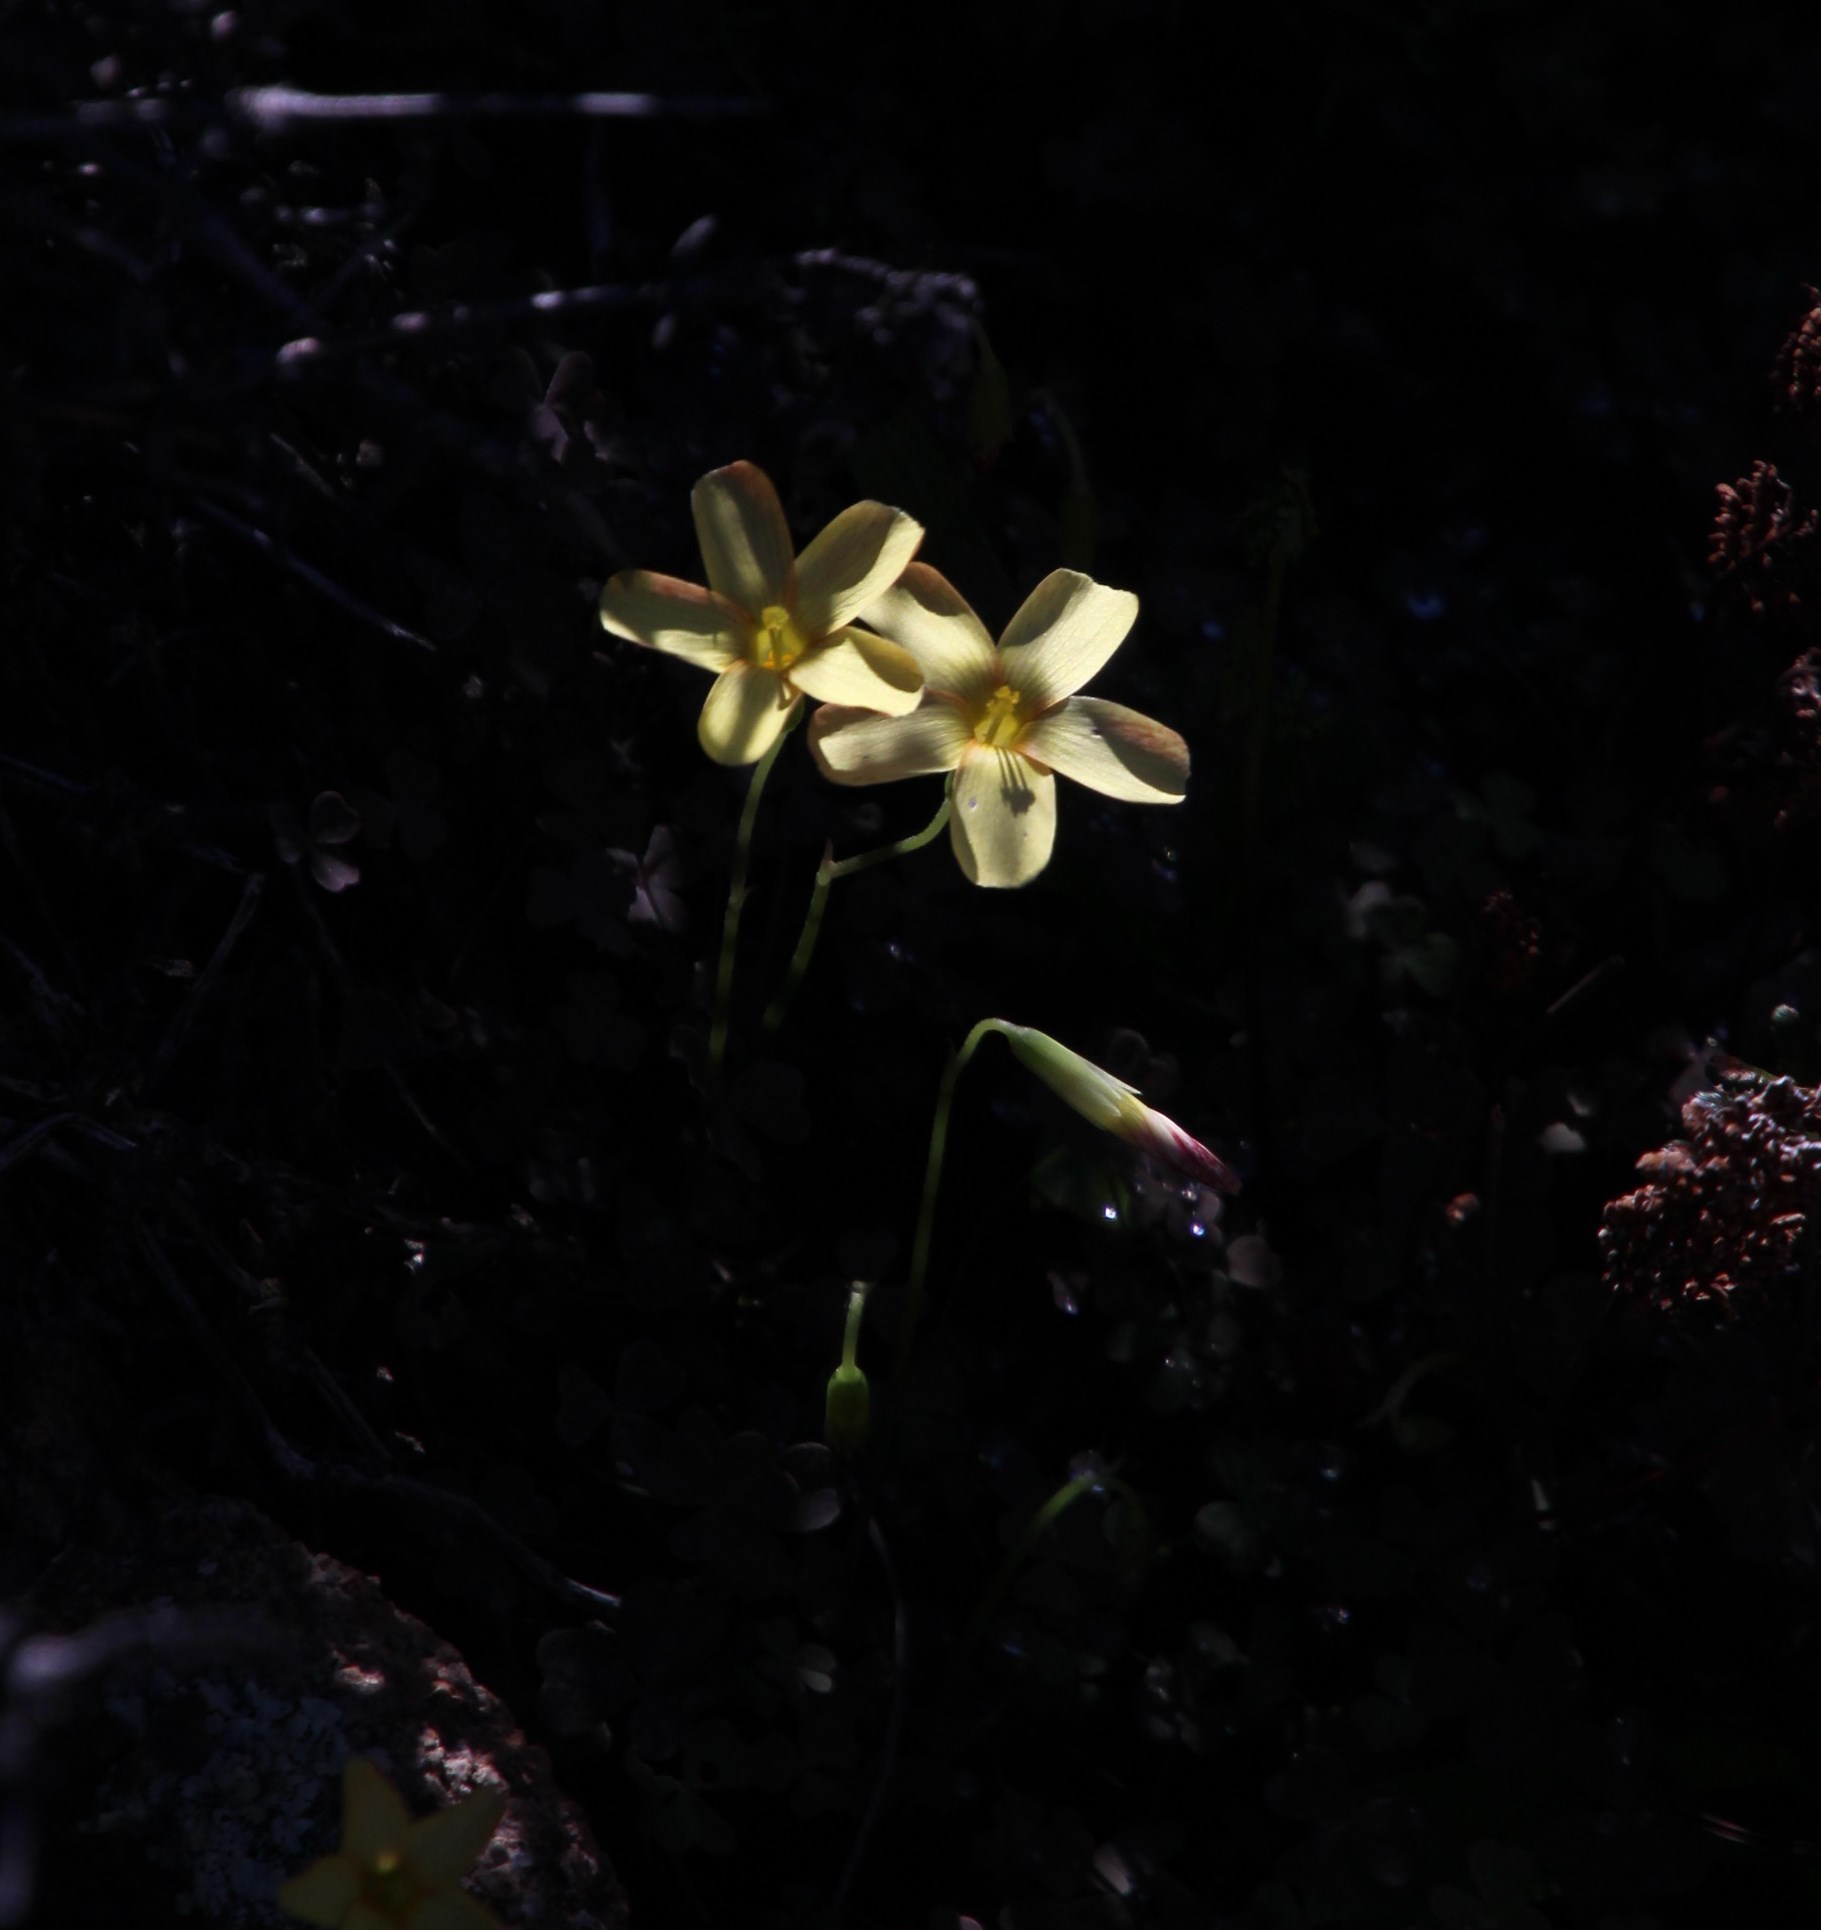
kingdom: Plantae
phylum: Tracheophyta
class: Magnoliopsida
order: Oxalidales
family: Oxalidaceae
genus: Oxalis
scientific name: Oxalis obtusa
